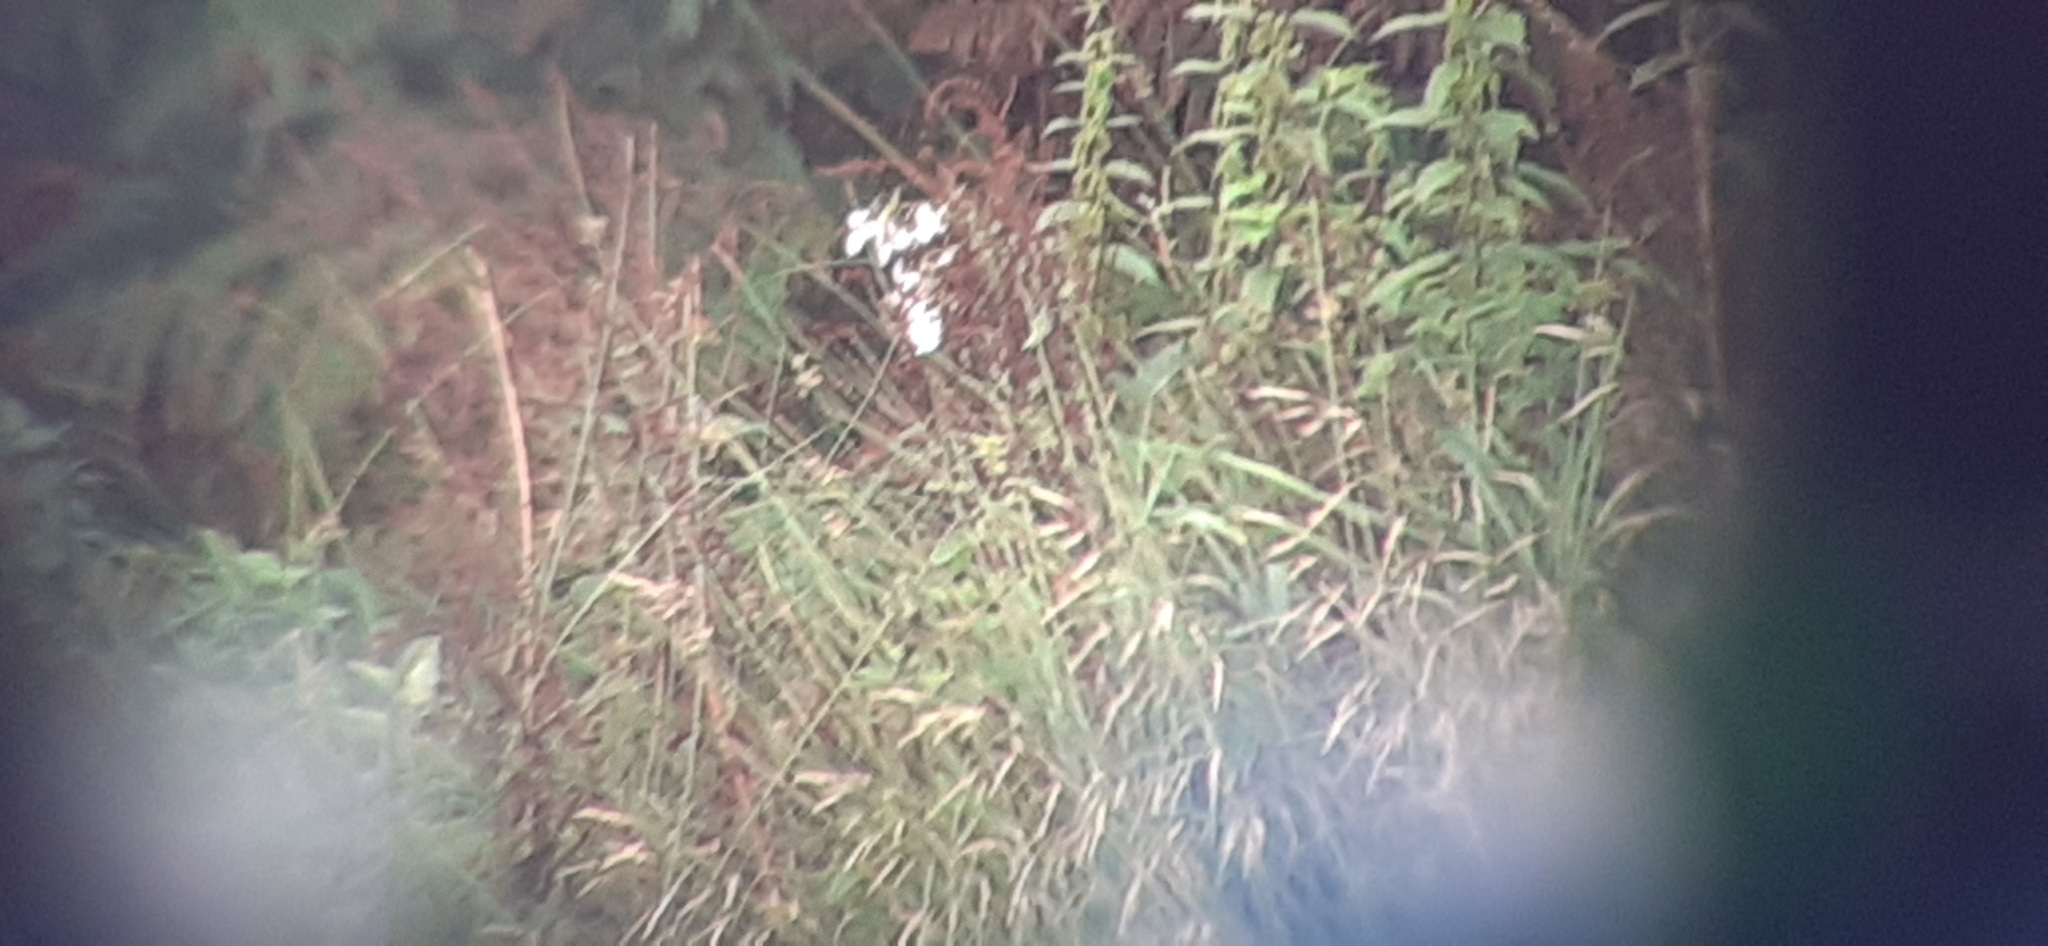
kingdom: Plantae
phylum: Tracheophyta
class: Magnoliopsida
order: Ericales
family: Balsaminaceae
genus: Impatiens
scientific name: Impatiens glandulifera
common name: Himalayan balsam
